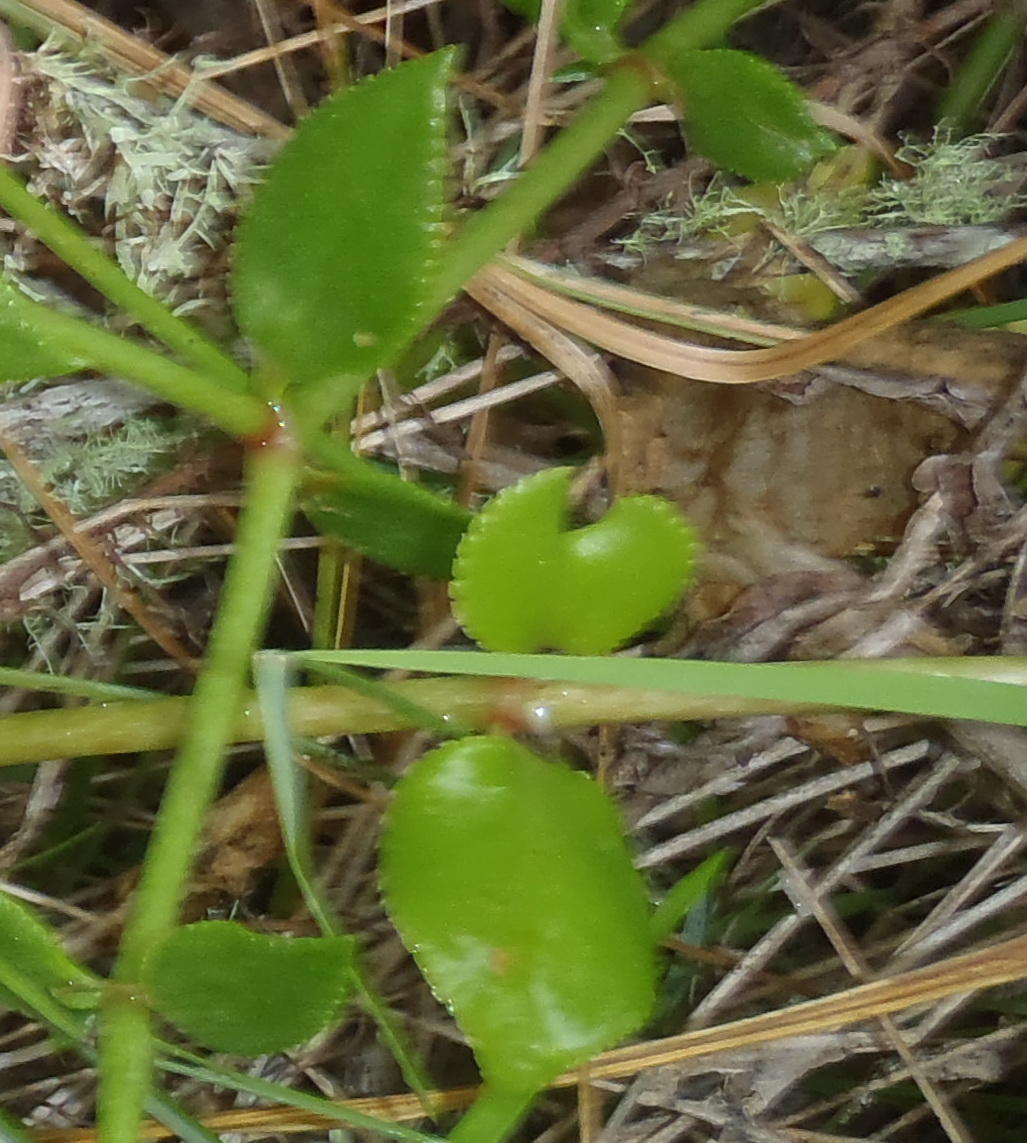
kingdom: Plantae
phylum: Tracheophyta
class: Magnoliopsida
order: Saxifragales
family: Crassulaceae
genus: Crassula
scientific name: Crassula sarmentosa
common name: Jade-tree
